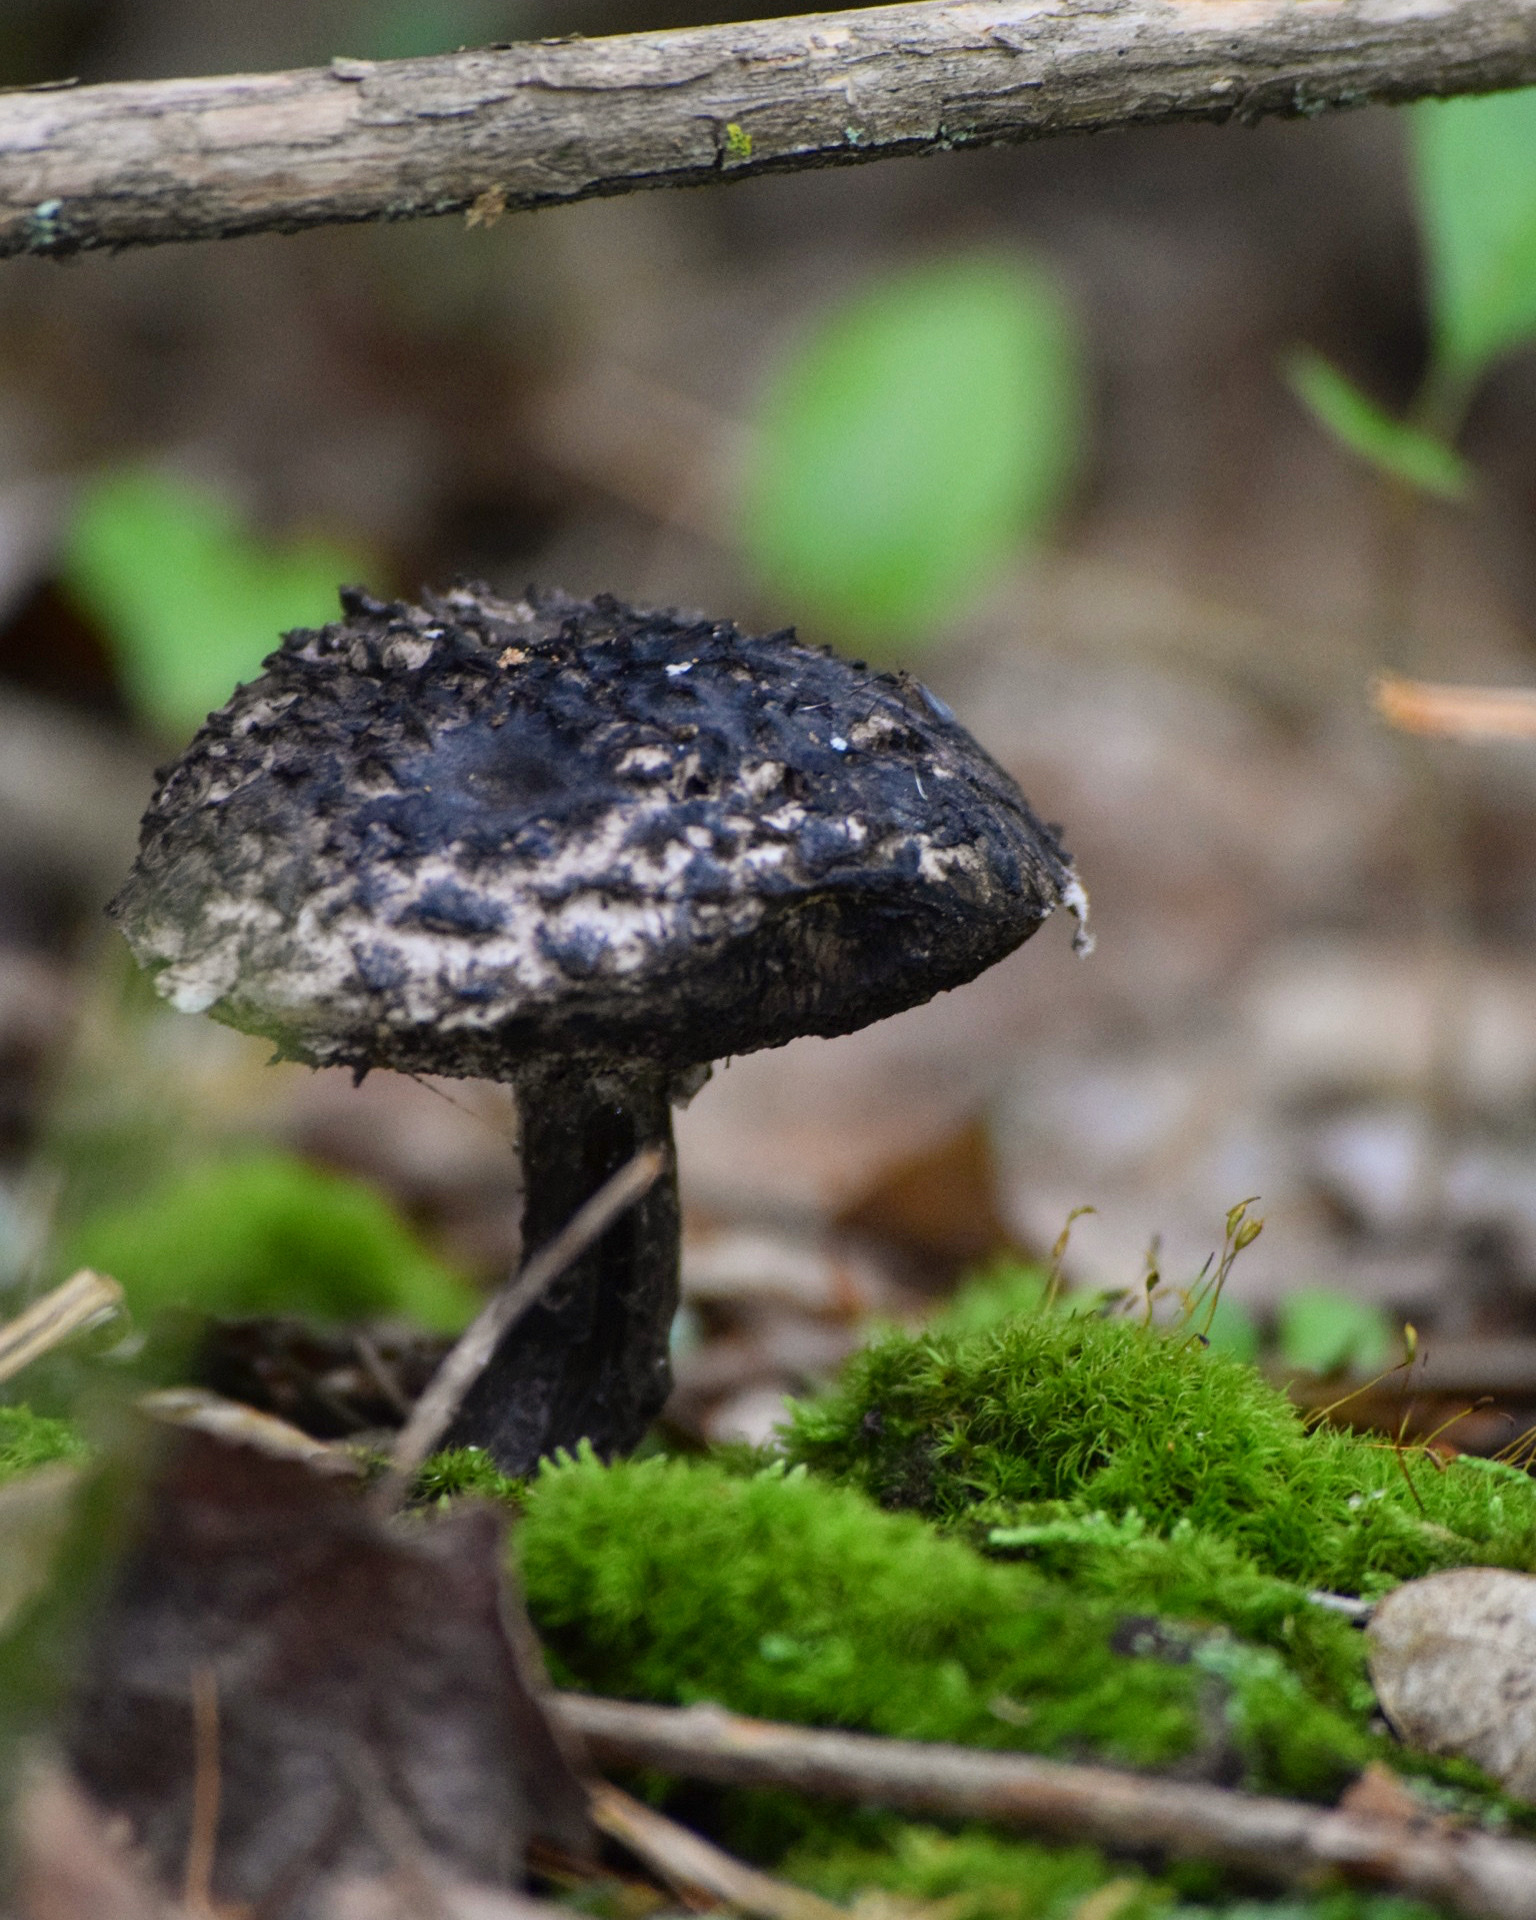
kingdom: Fungi
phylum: Basidiomycota
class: Agaricomycetes
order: Boletales
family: Boletaceae
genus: Strobilomyces
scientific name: Strobilomyces strobilaceus
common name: Old man of the woods
